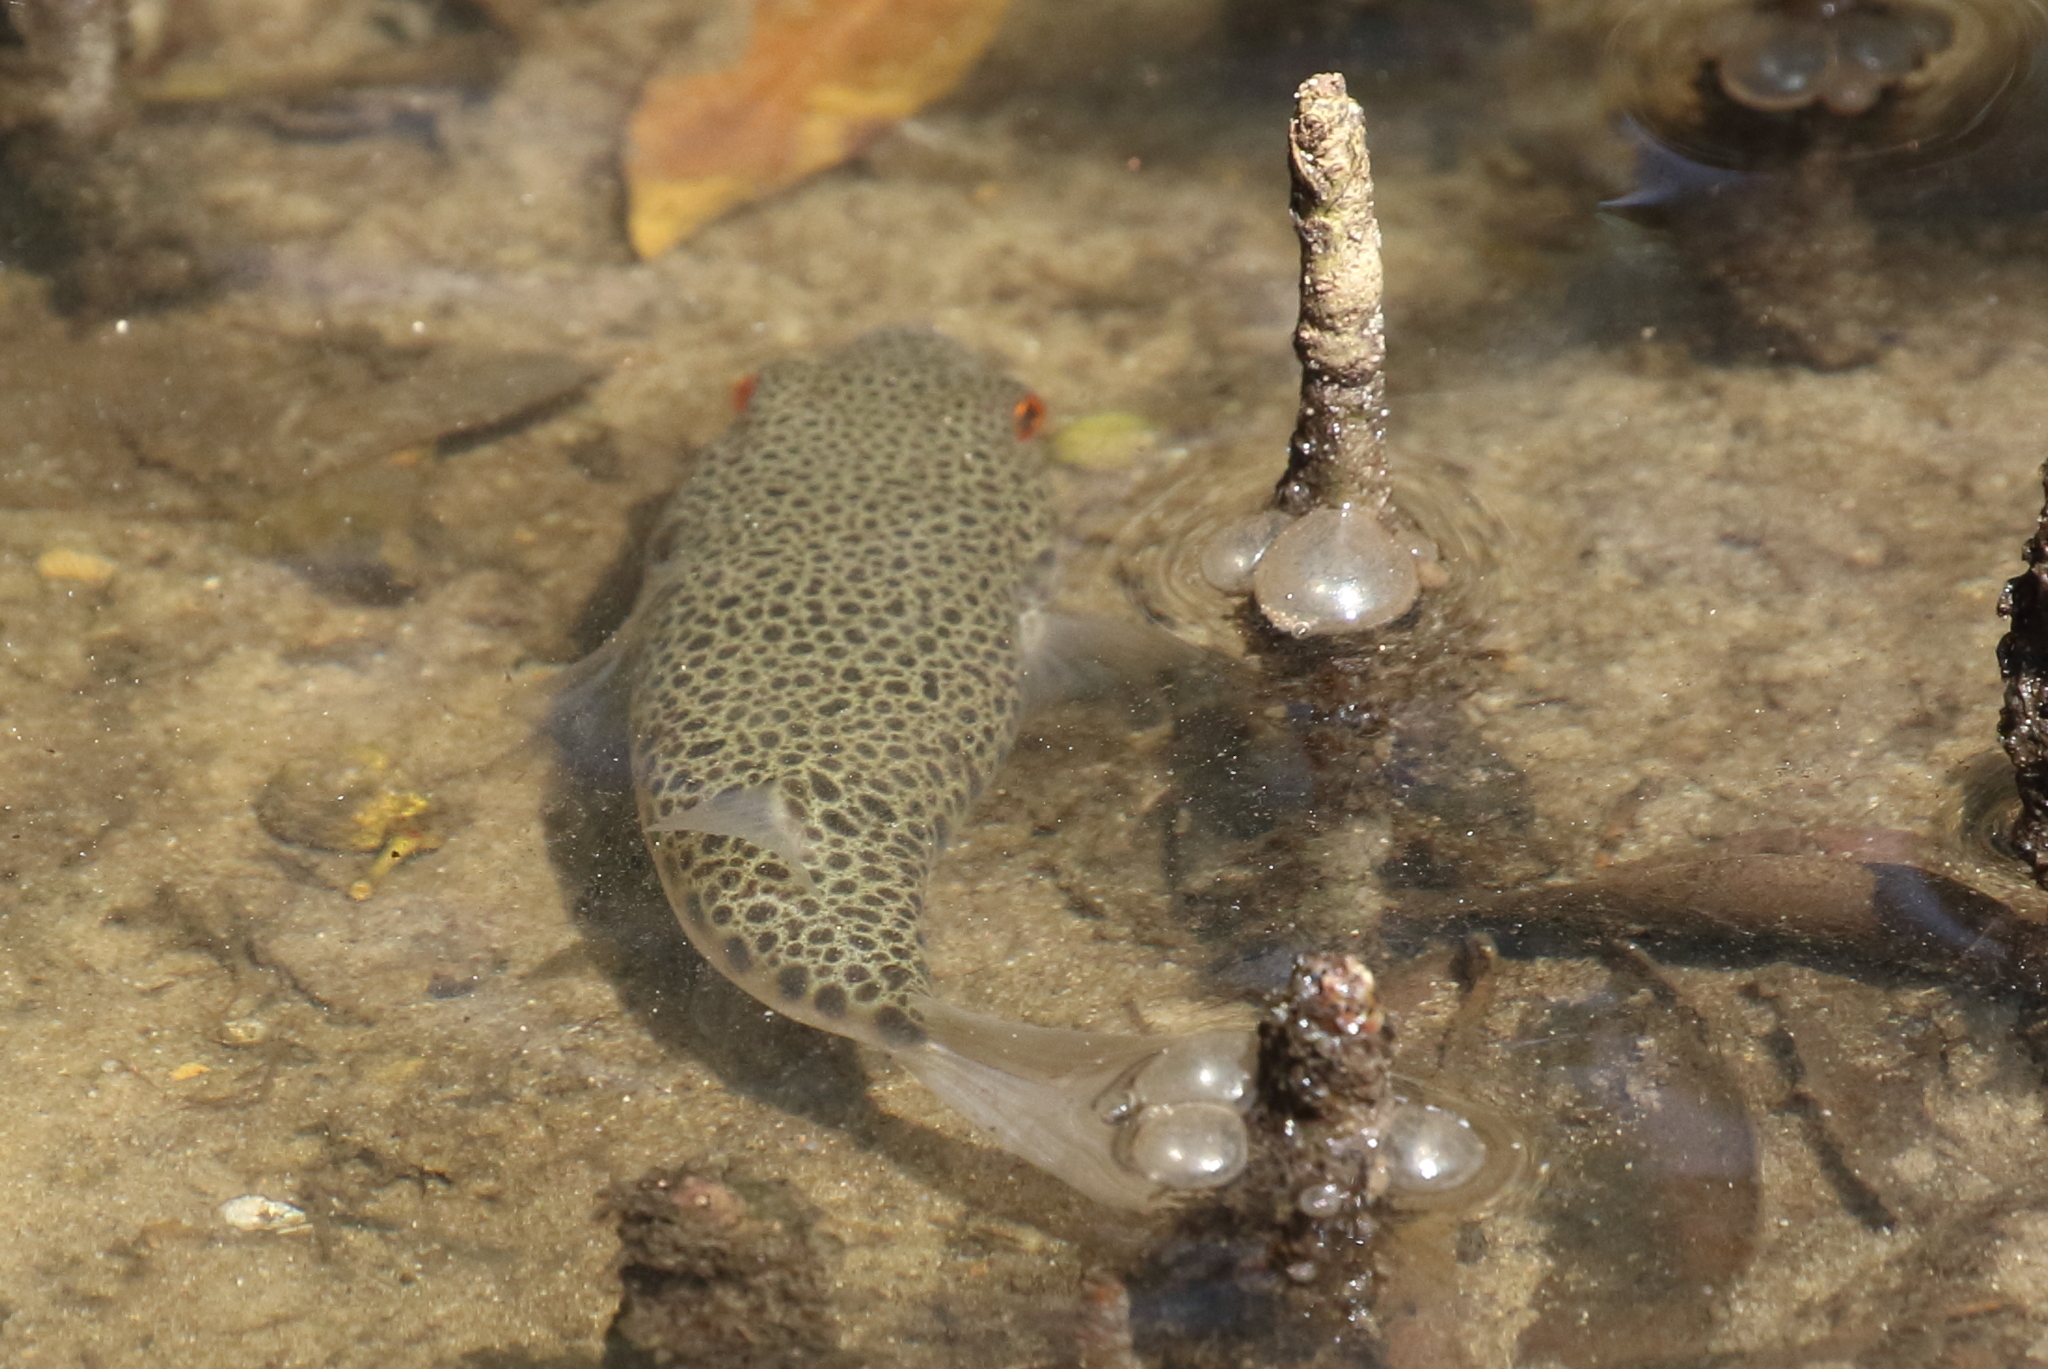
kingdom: Animalia
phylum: Chordata
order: Tetraodontiformes
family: Tetraodontidae
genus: Tetractenos
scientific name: Tetractenos hamiltoni
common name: Common toadfish
